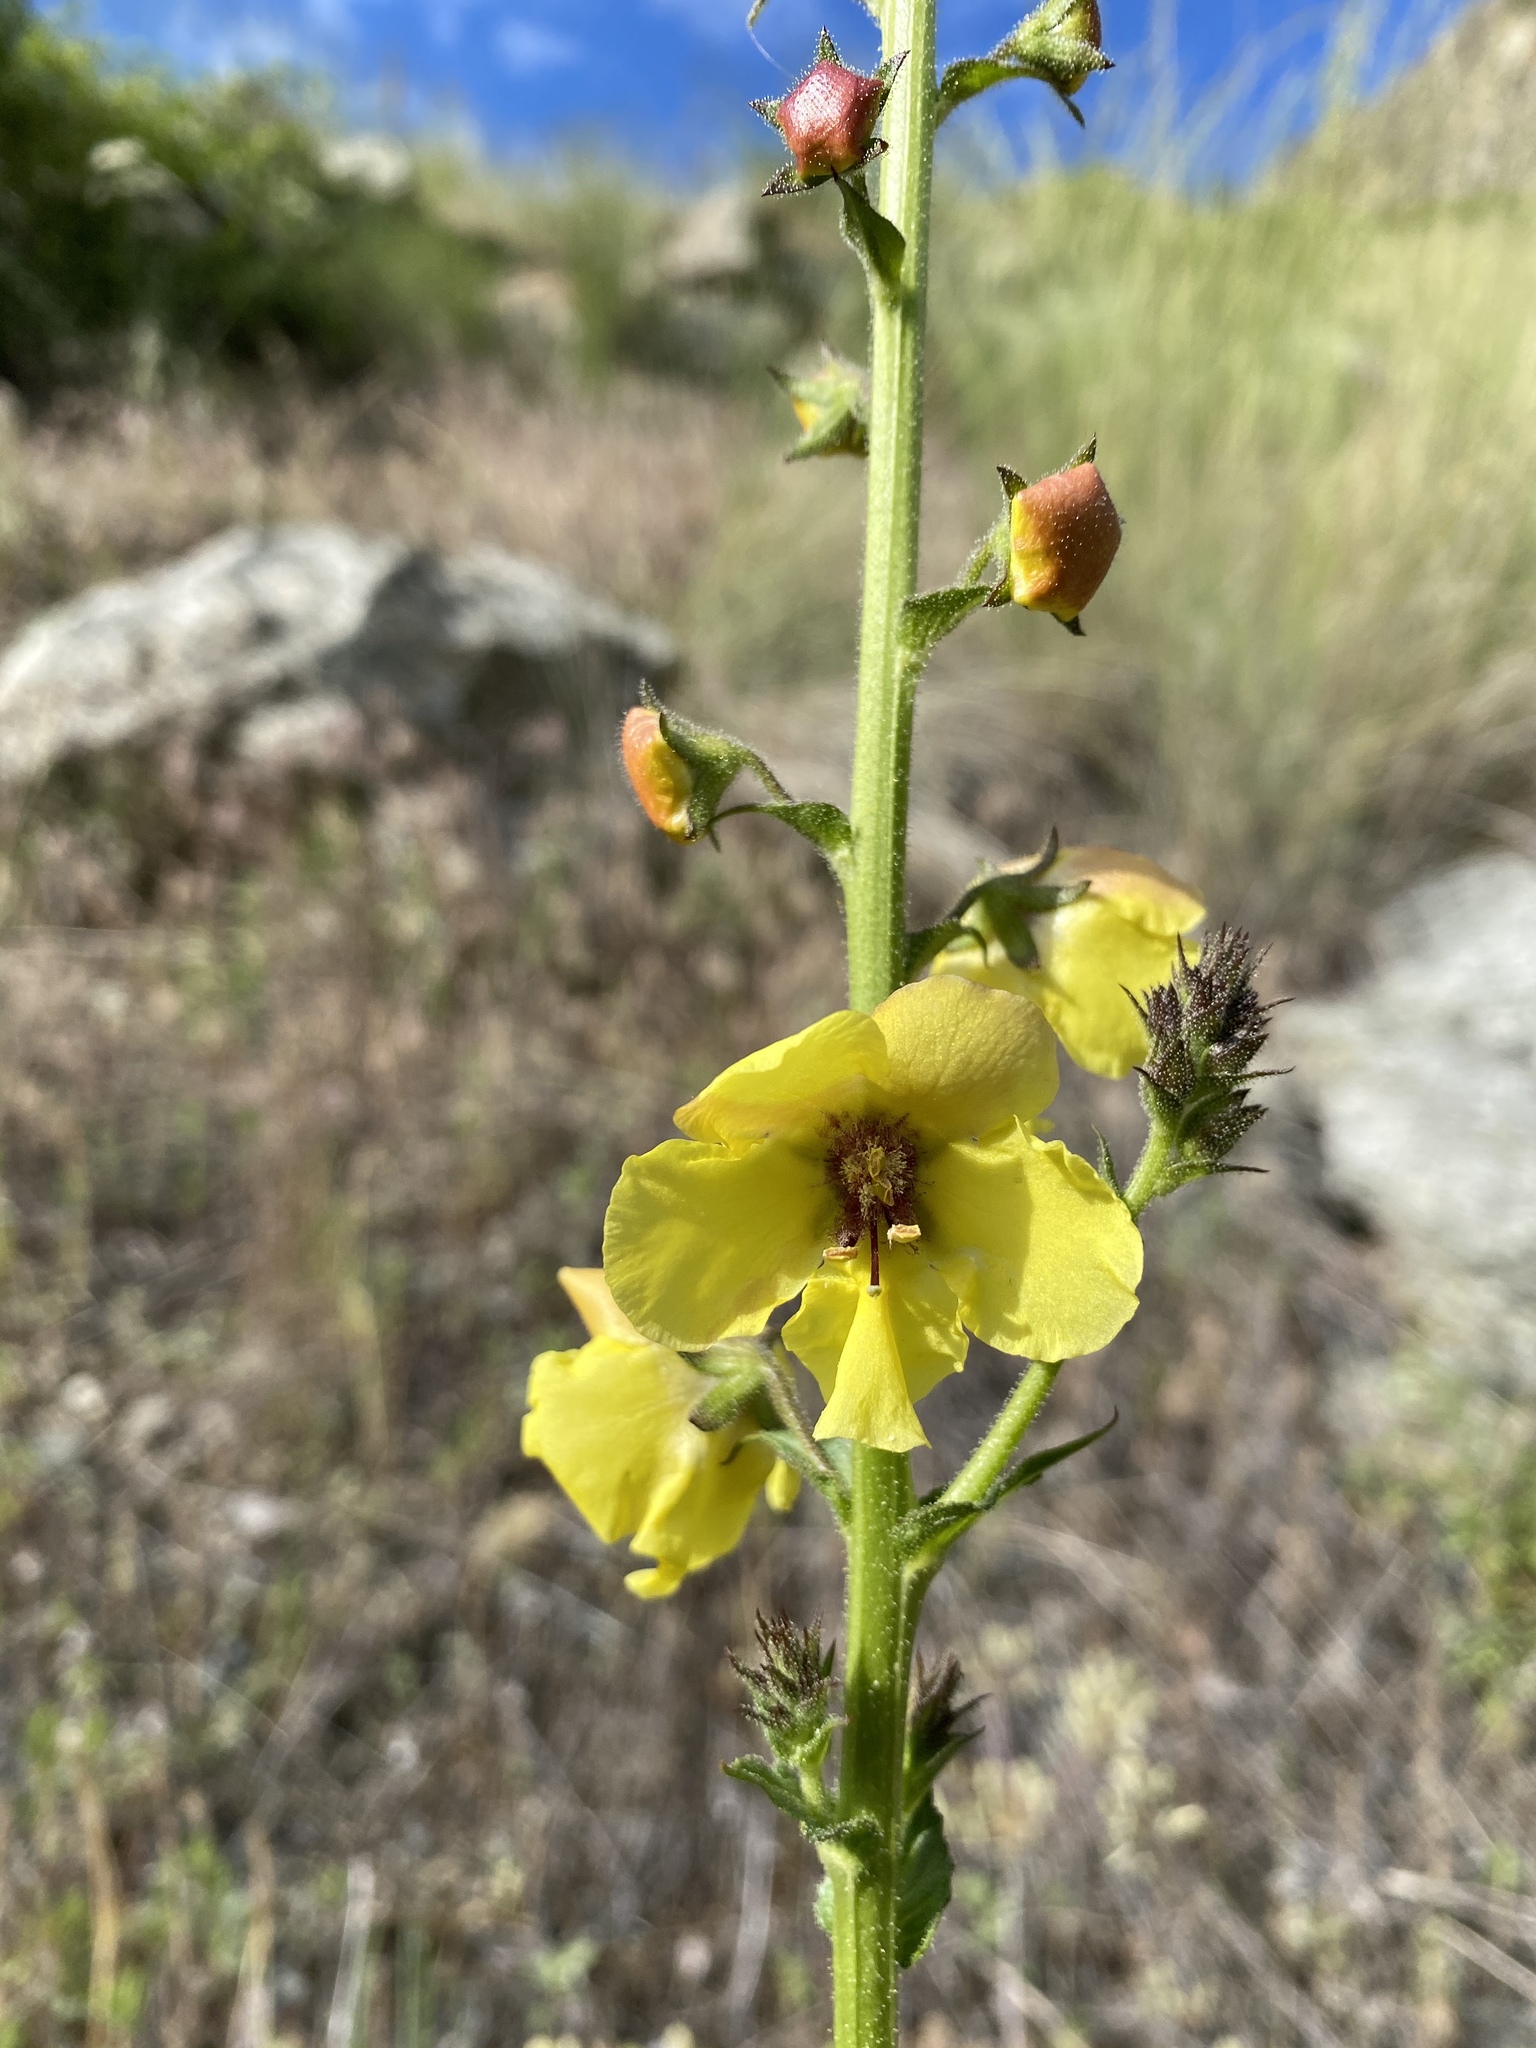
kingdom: Plantae
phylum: Tracheophyta
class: Magnoliopsida
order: Lamiales
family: Scrophulariaceae
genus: Verbascum
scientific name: Verbascum blattaria
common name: Moth mullein
